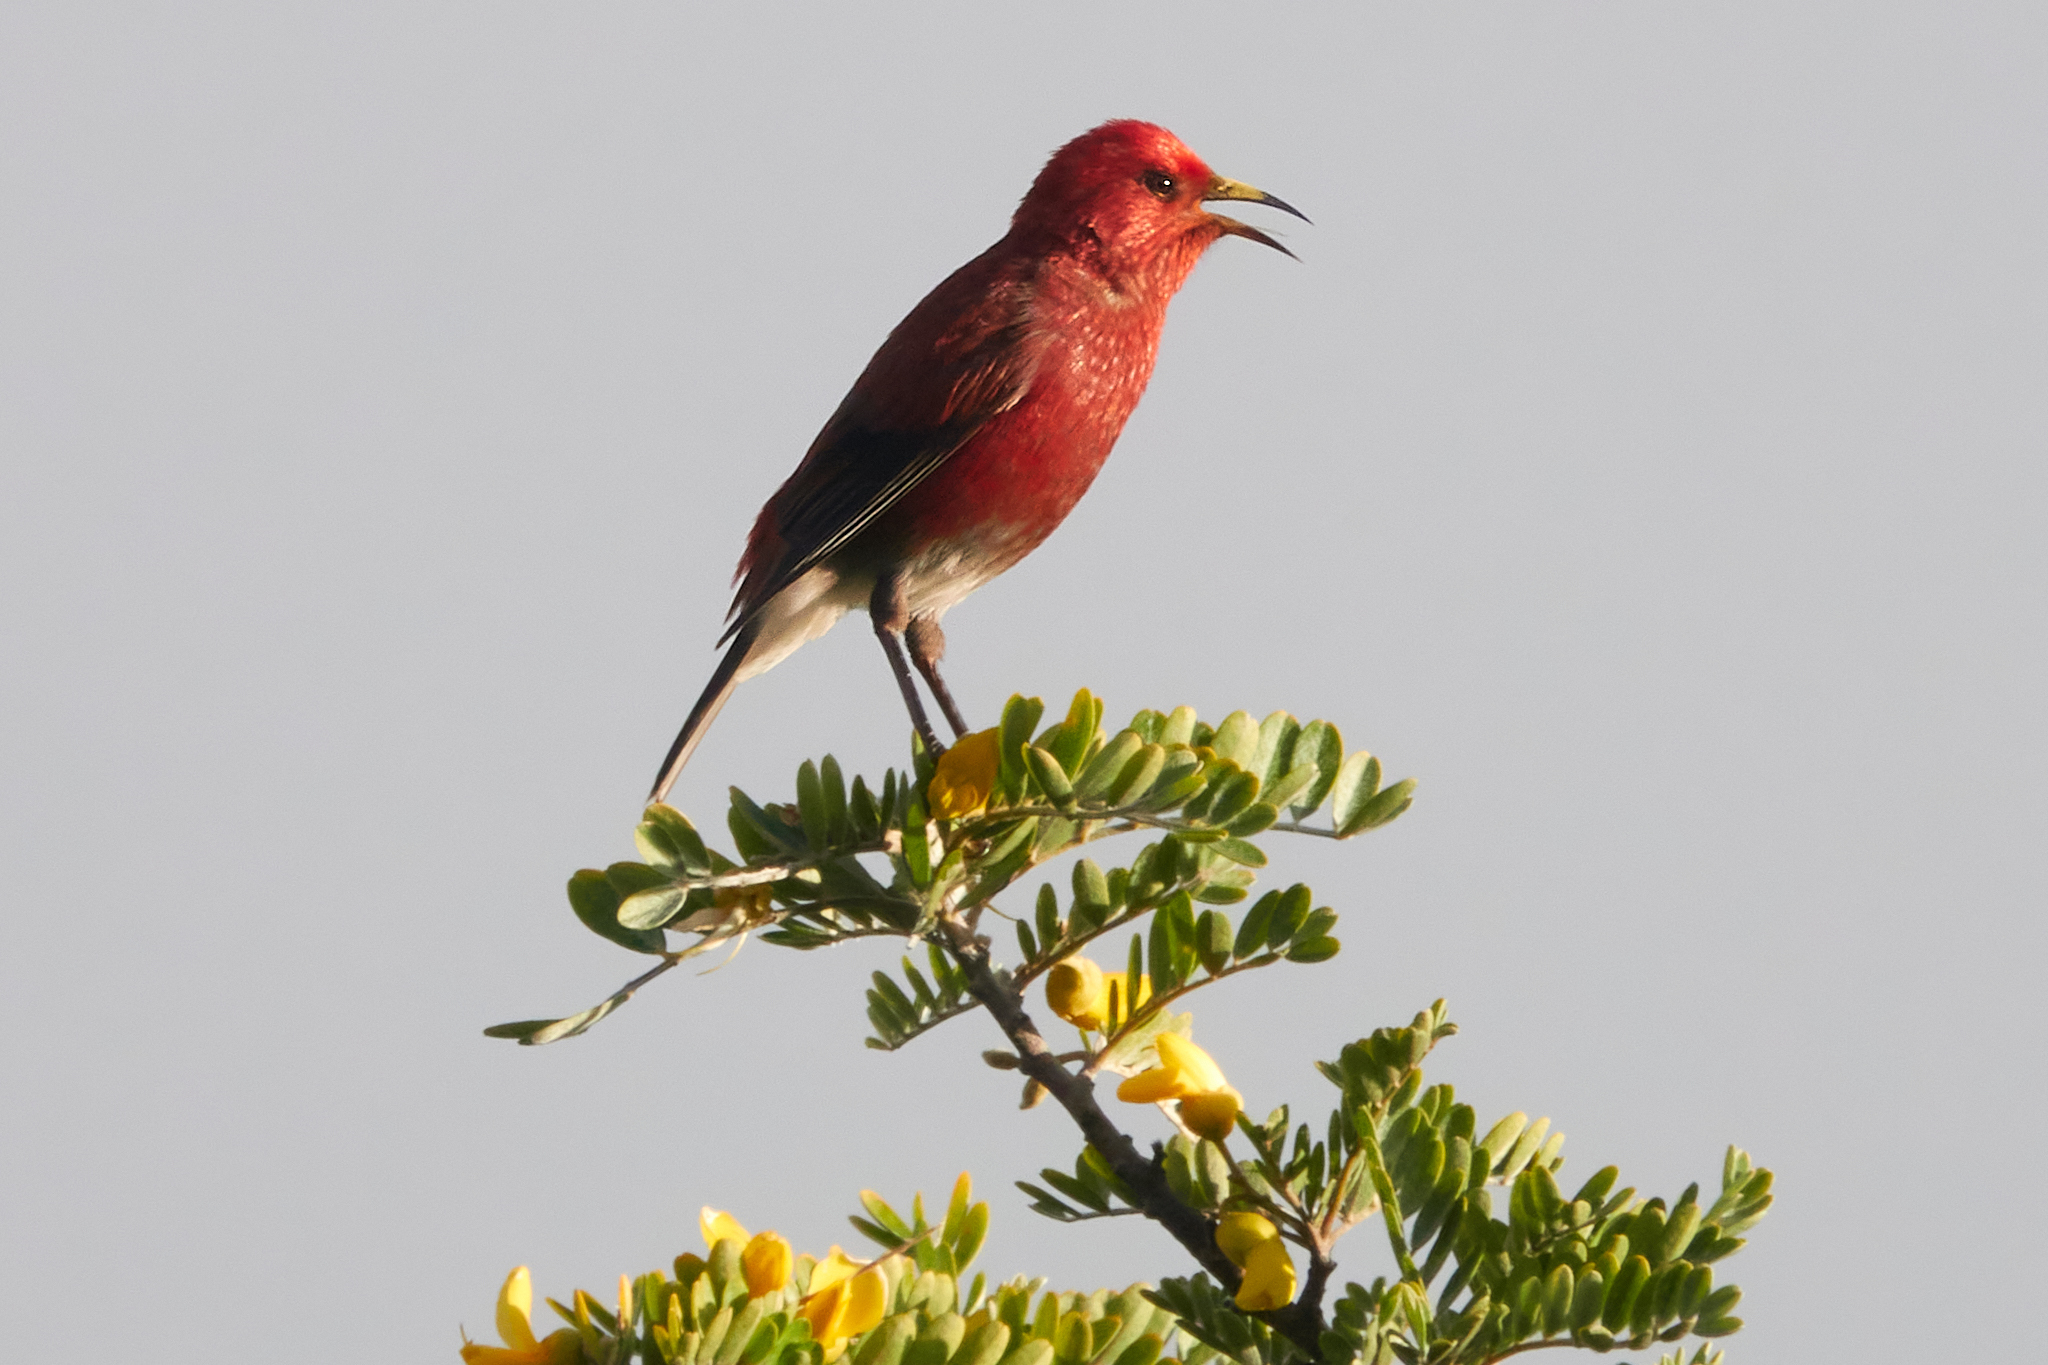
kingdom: Animalia
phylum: Chordata
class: Aves
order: Passeriformes
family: Fringillidae
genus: Himatione
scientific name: Himatione sanguinea
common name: Apapane
